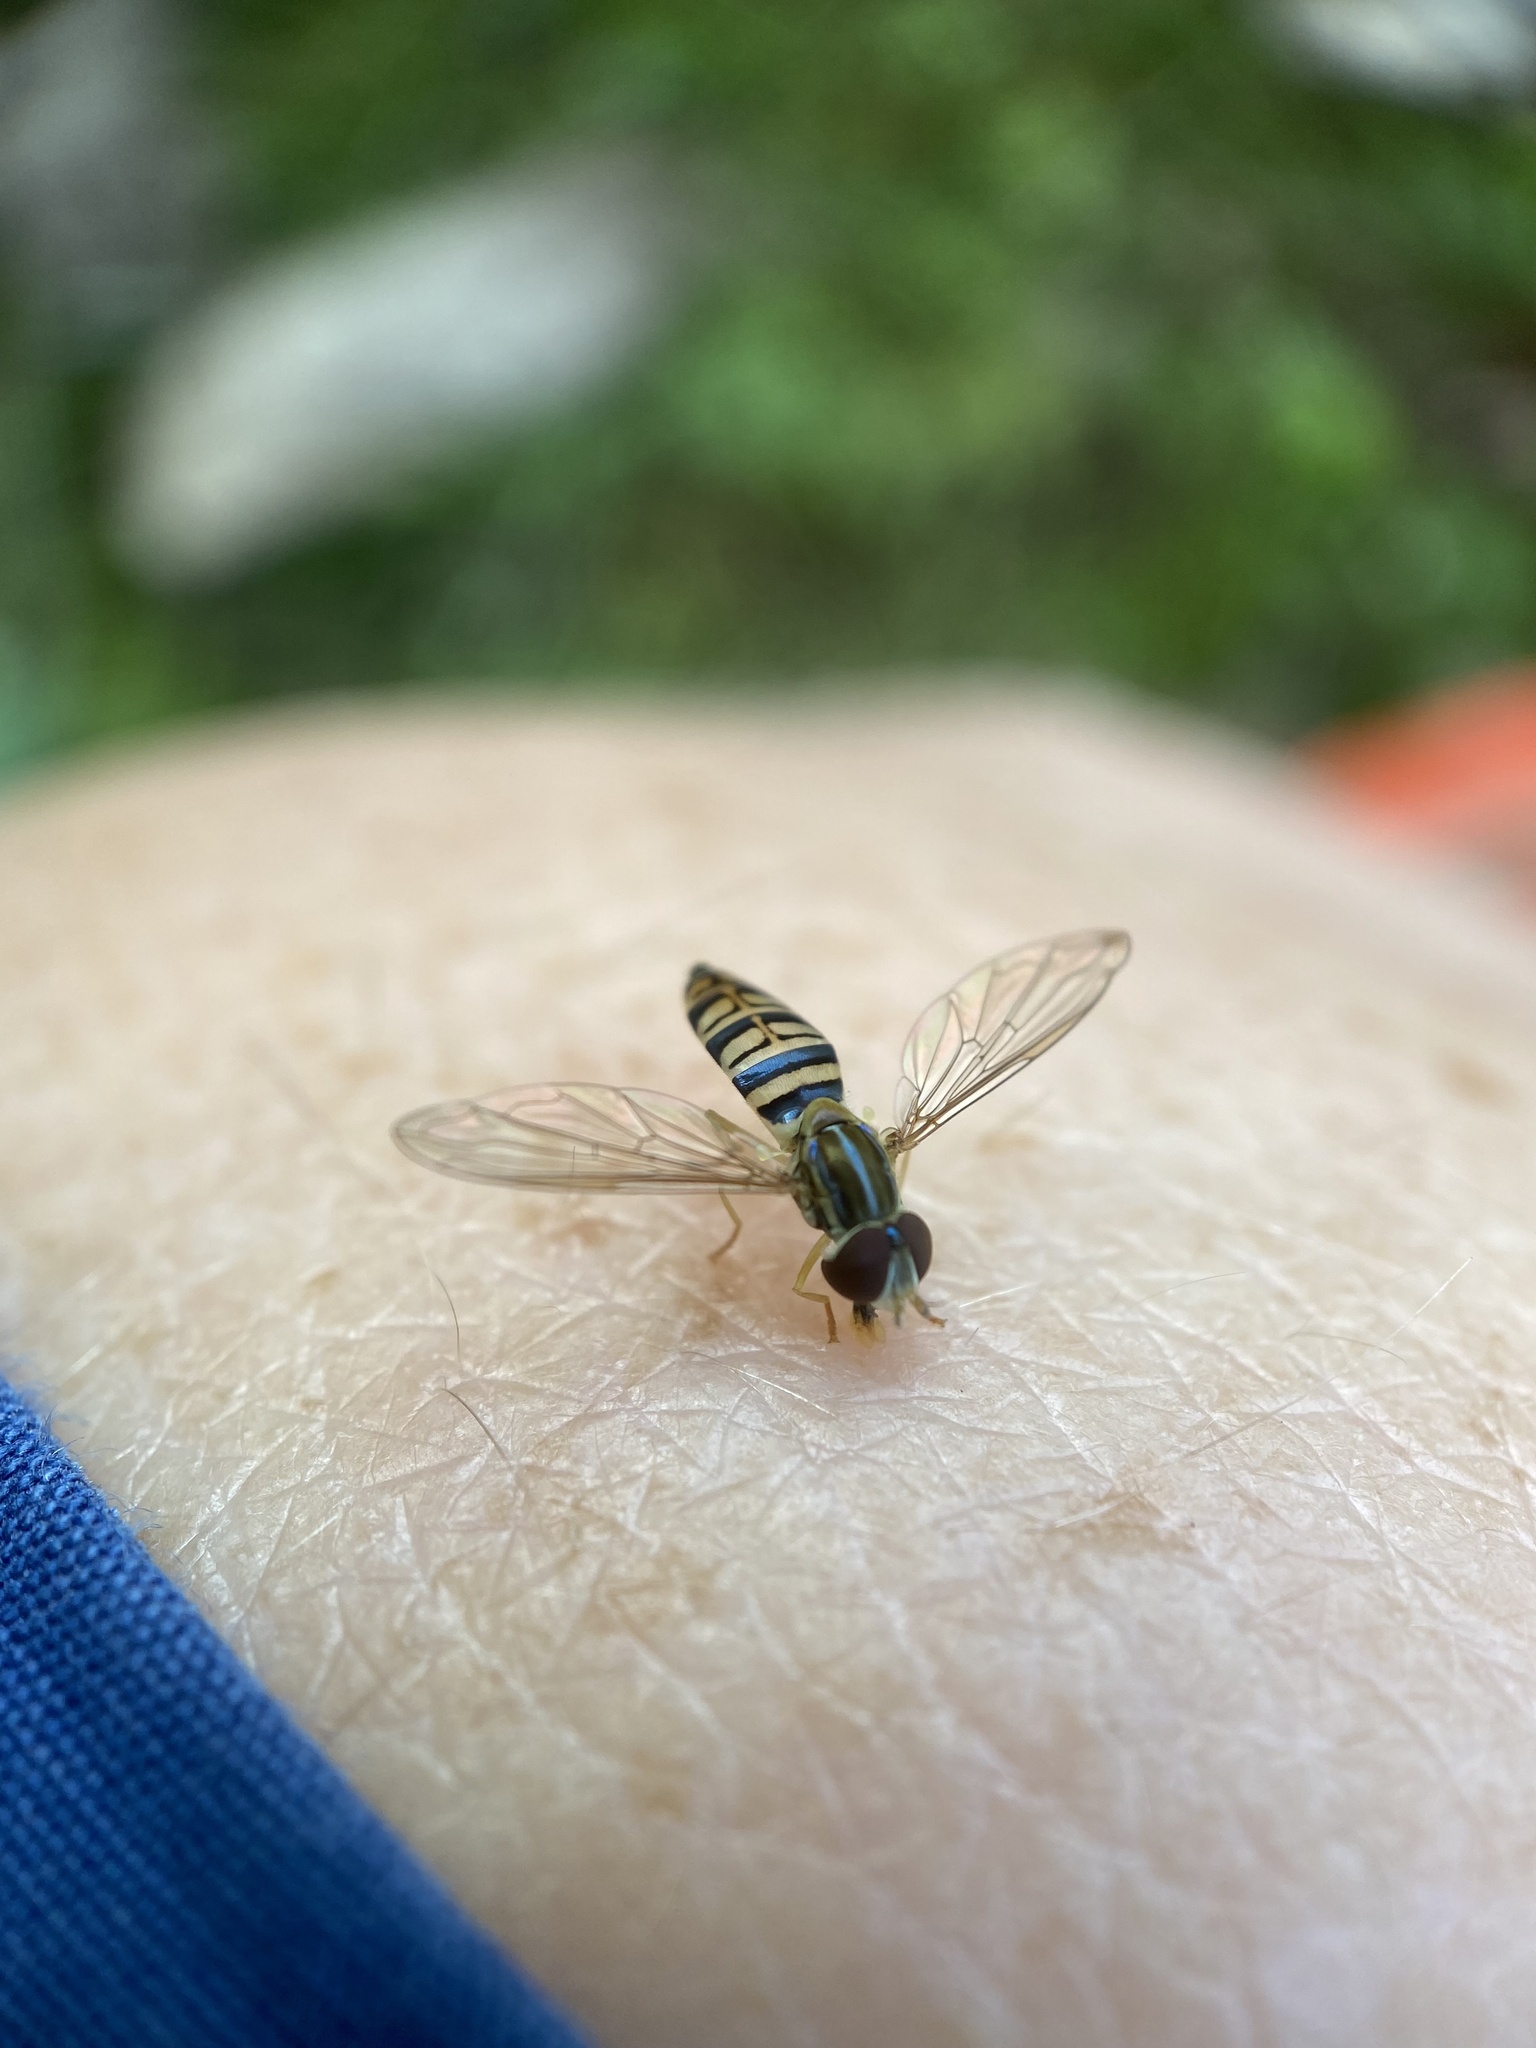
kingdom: Animalia
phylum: Arthropoda
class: Insecta
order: Diptera
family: Syrphidae
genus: Toxomerus
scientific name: Toxomerus politus
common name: Maize calligrapher
